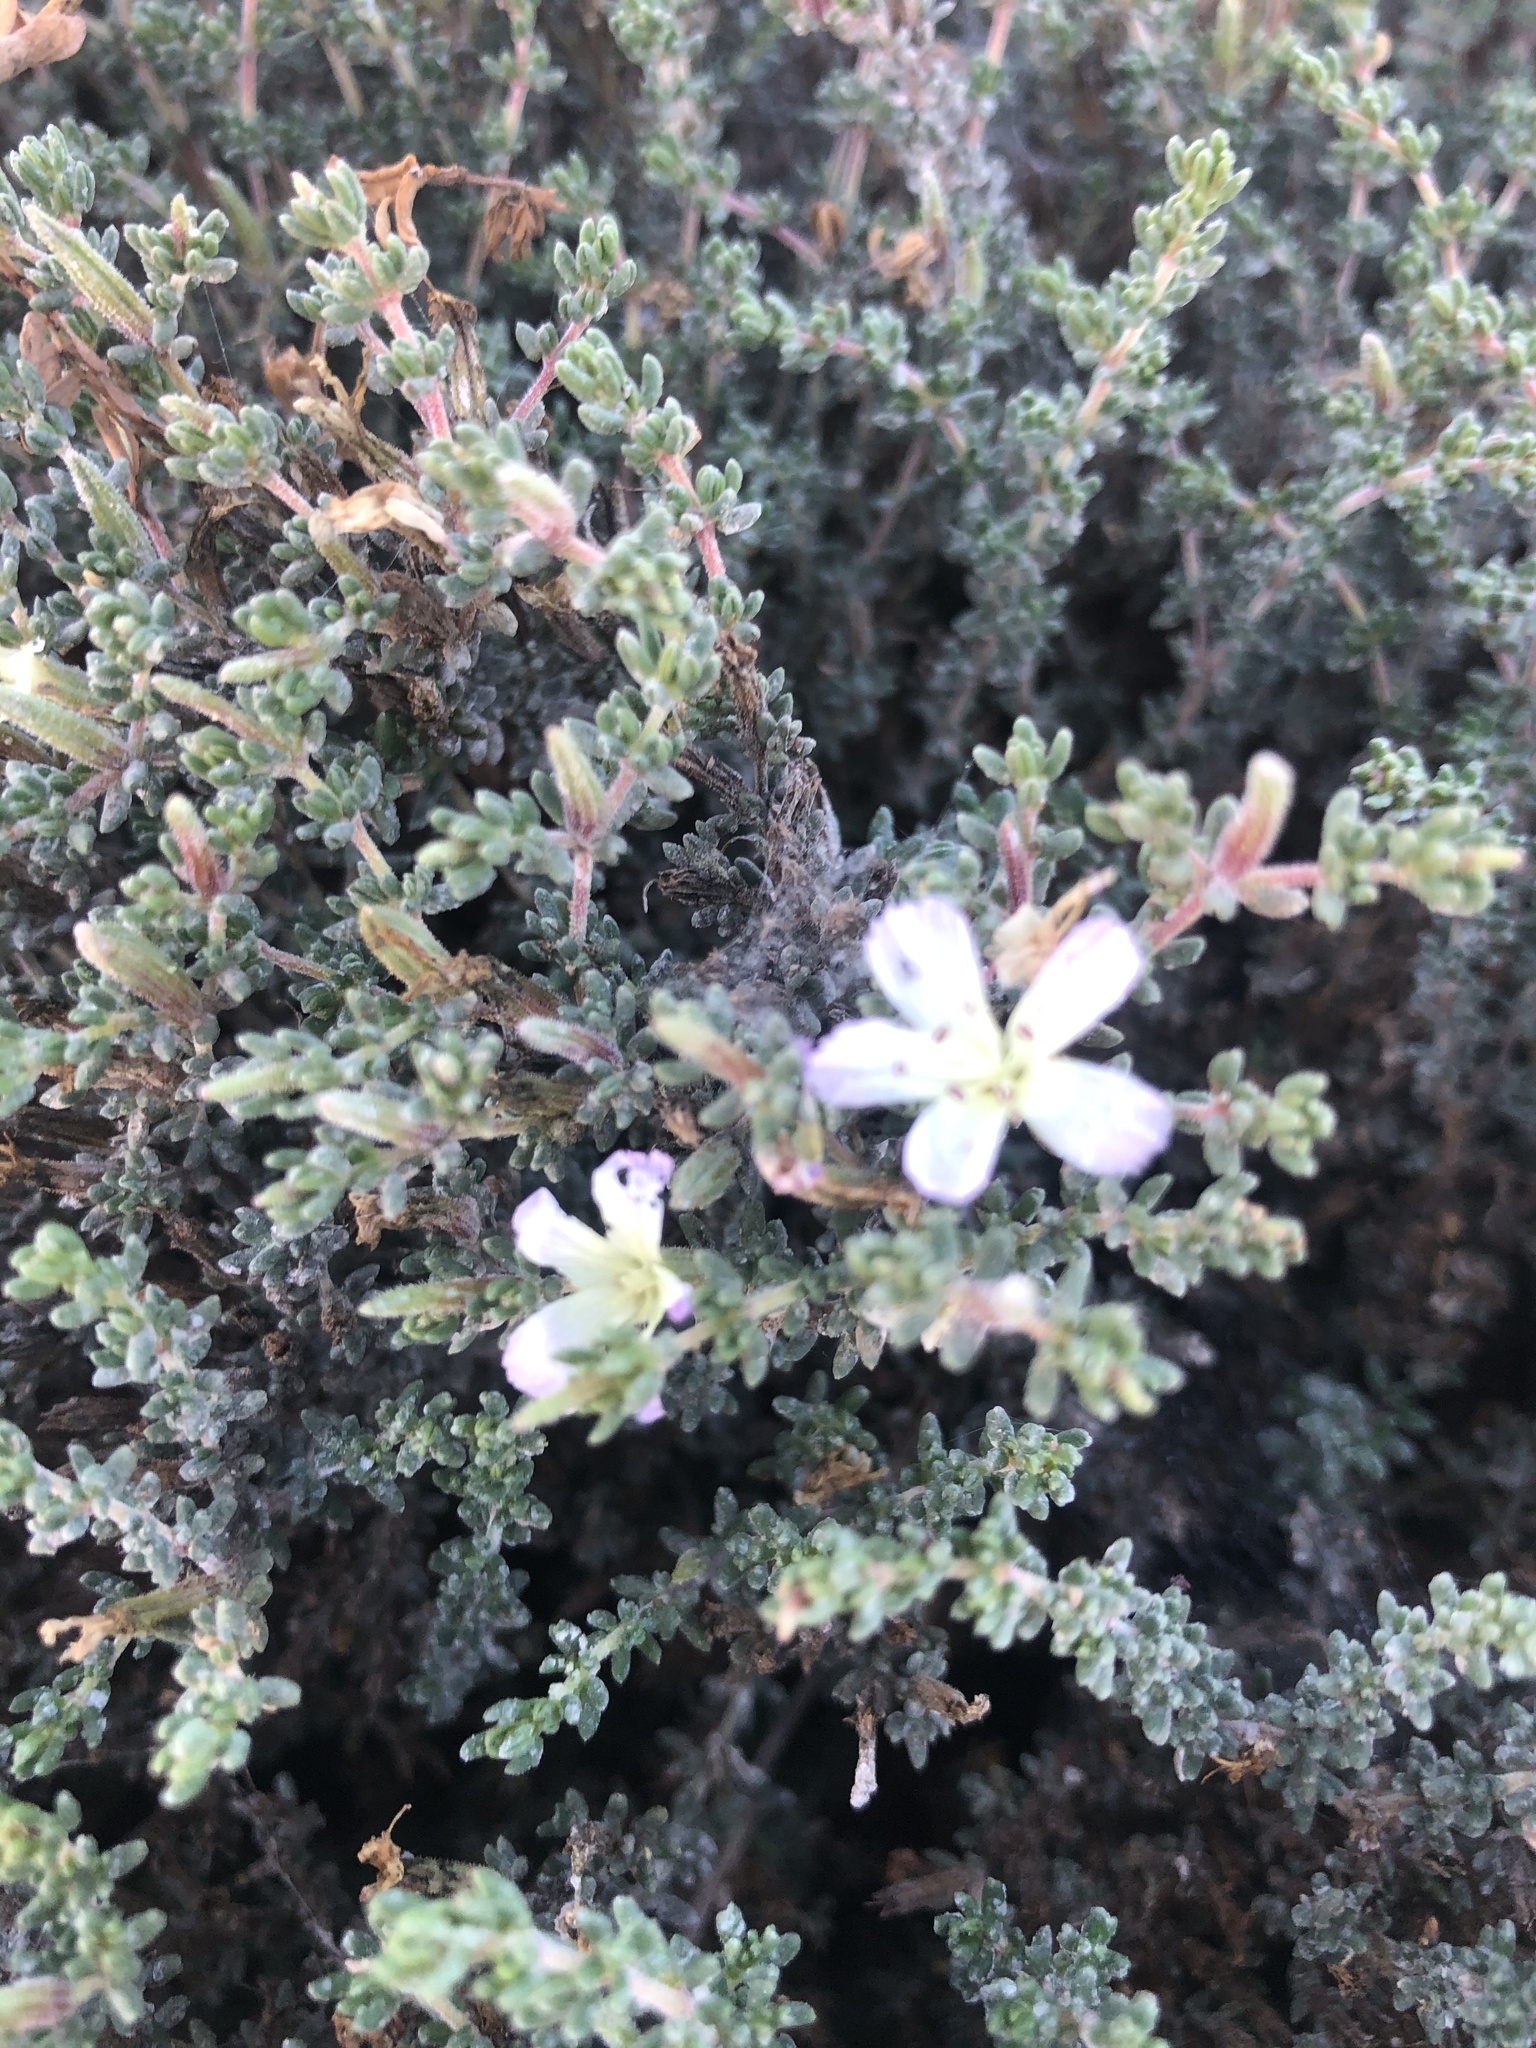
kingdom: Plantae
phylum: Tracheophyta
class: Magnoliopsida
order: Caryophyllales
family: Frankeniaceae
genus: Frankenia
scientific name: Frankenia chilensis
